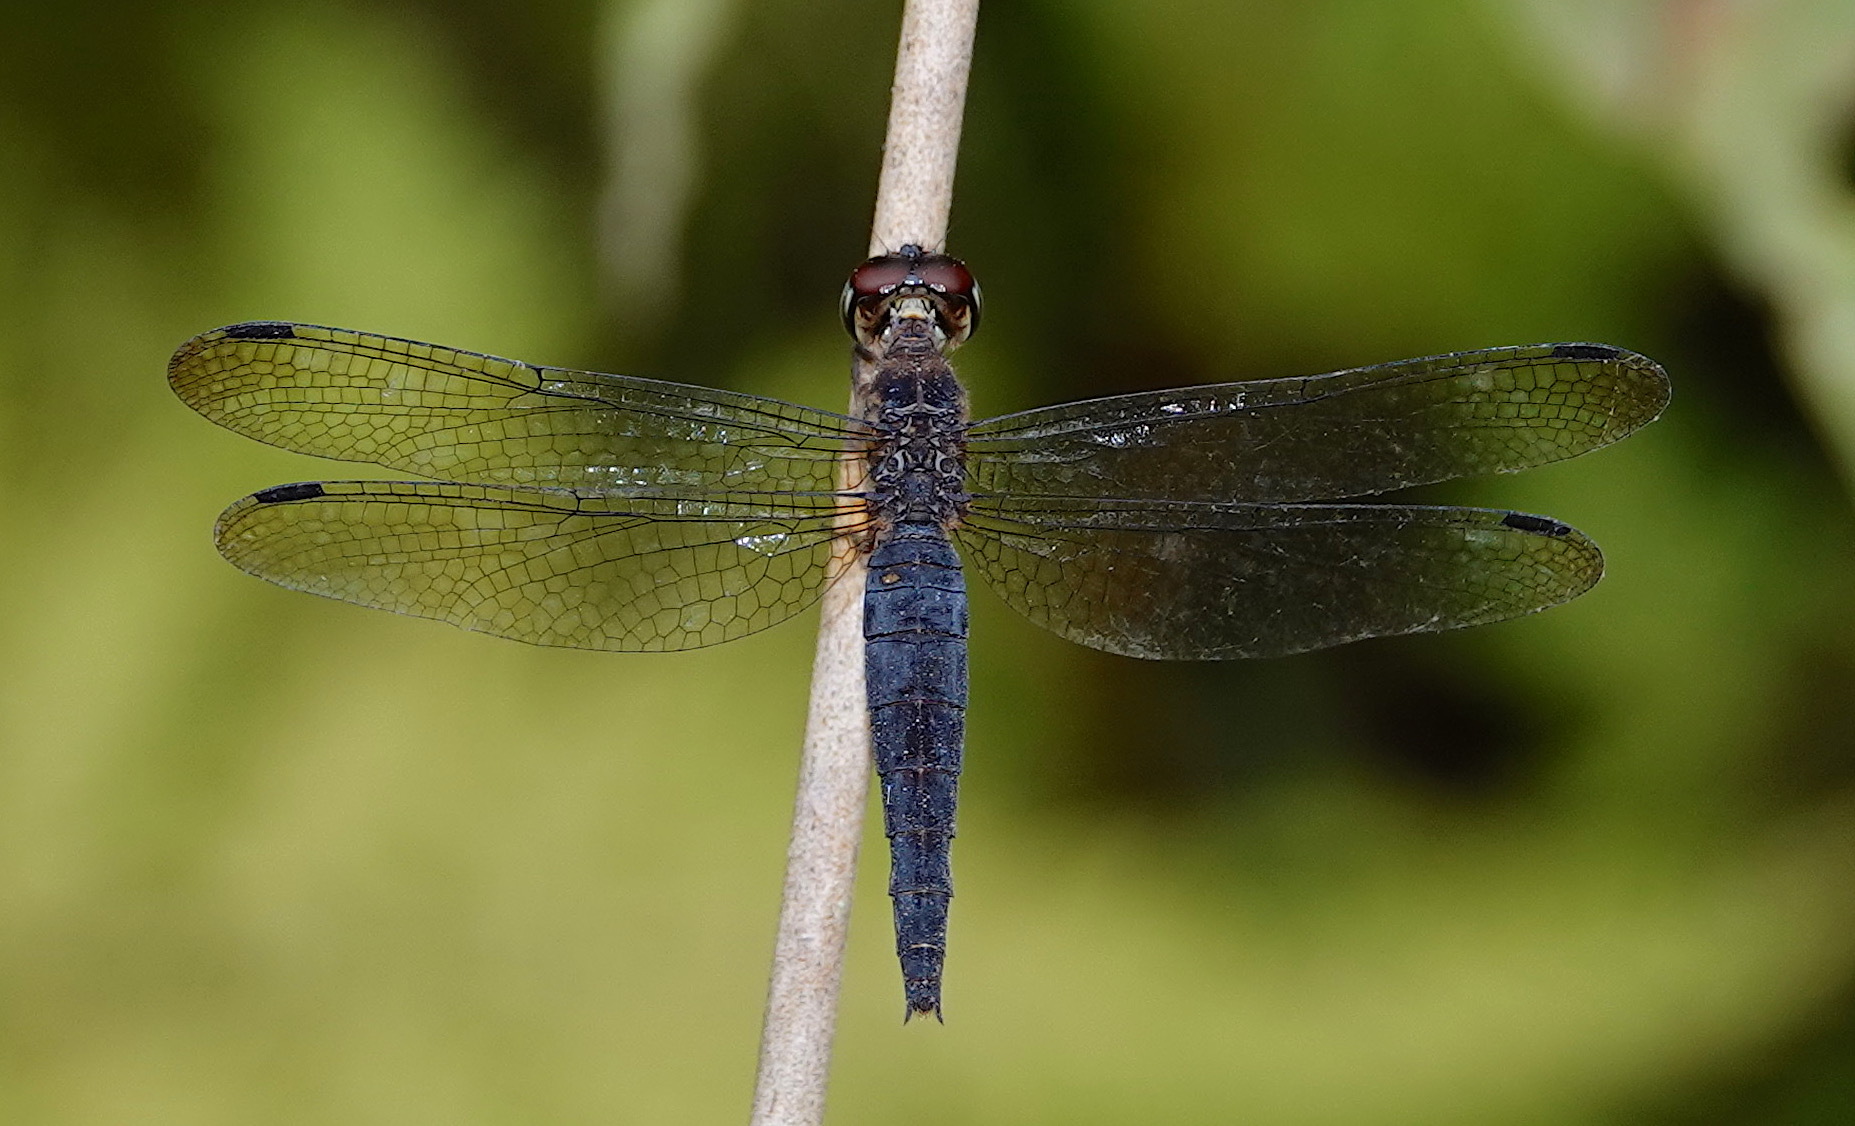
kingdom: Animalia
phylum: Arthropoda
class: Insecta
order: Odonata
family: Libellulidae
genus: Orchithemis
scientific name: Orchithemis pulcherrima
